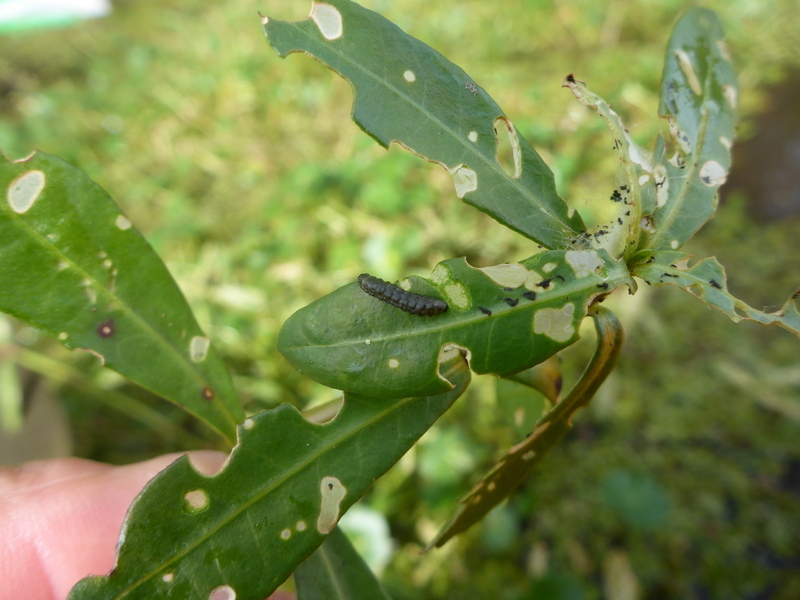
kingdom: Animalia
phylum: Arthropoda
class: Insecta
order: Coleoptera
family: Chrysomelidae
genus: Agasicles
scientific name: Agasicles hygrophila
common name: Alligatorweed flea beetle
